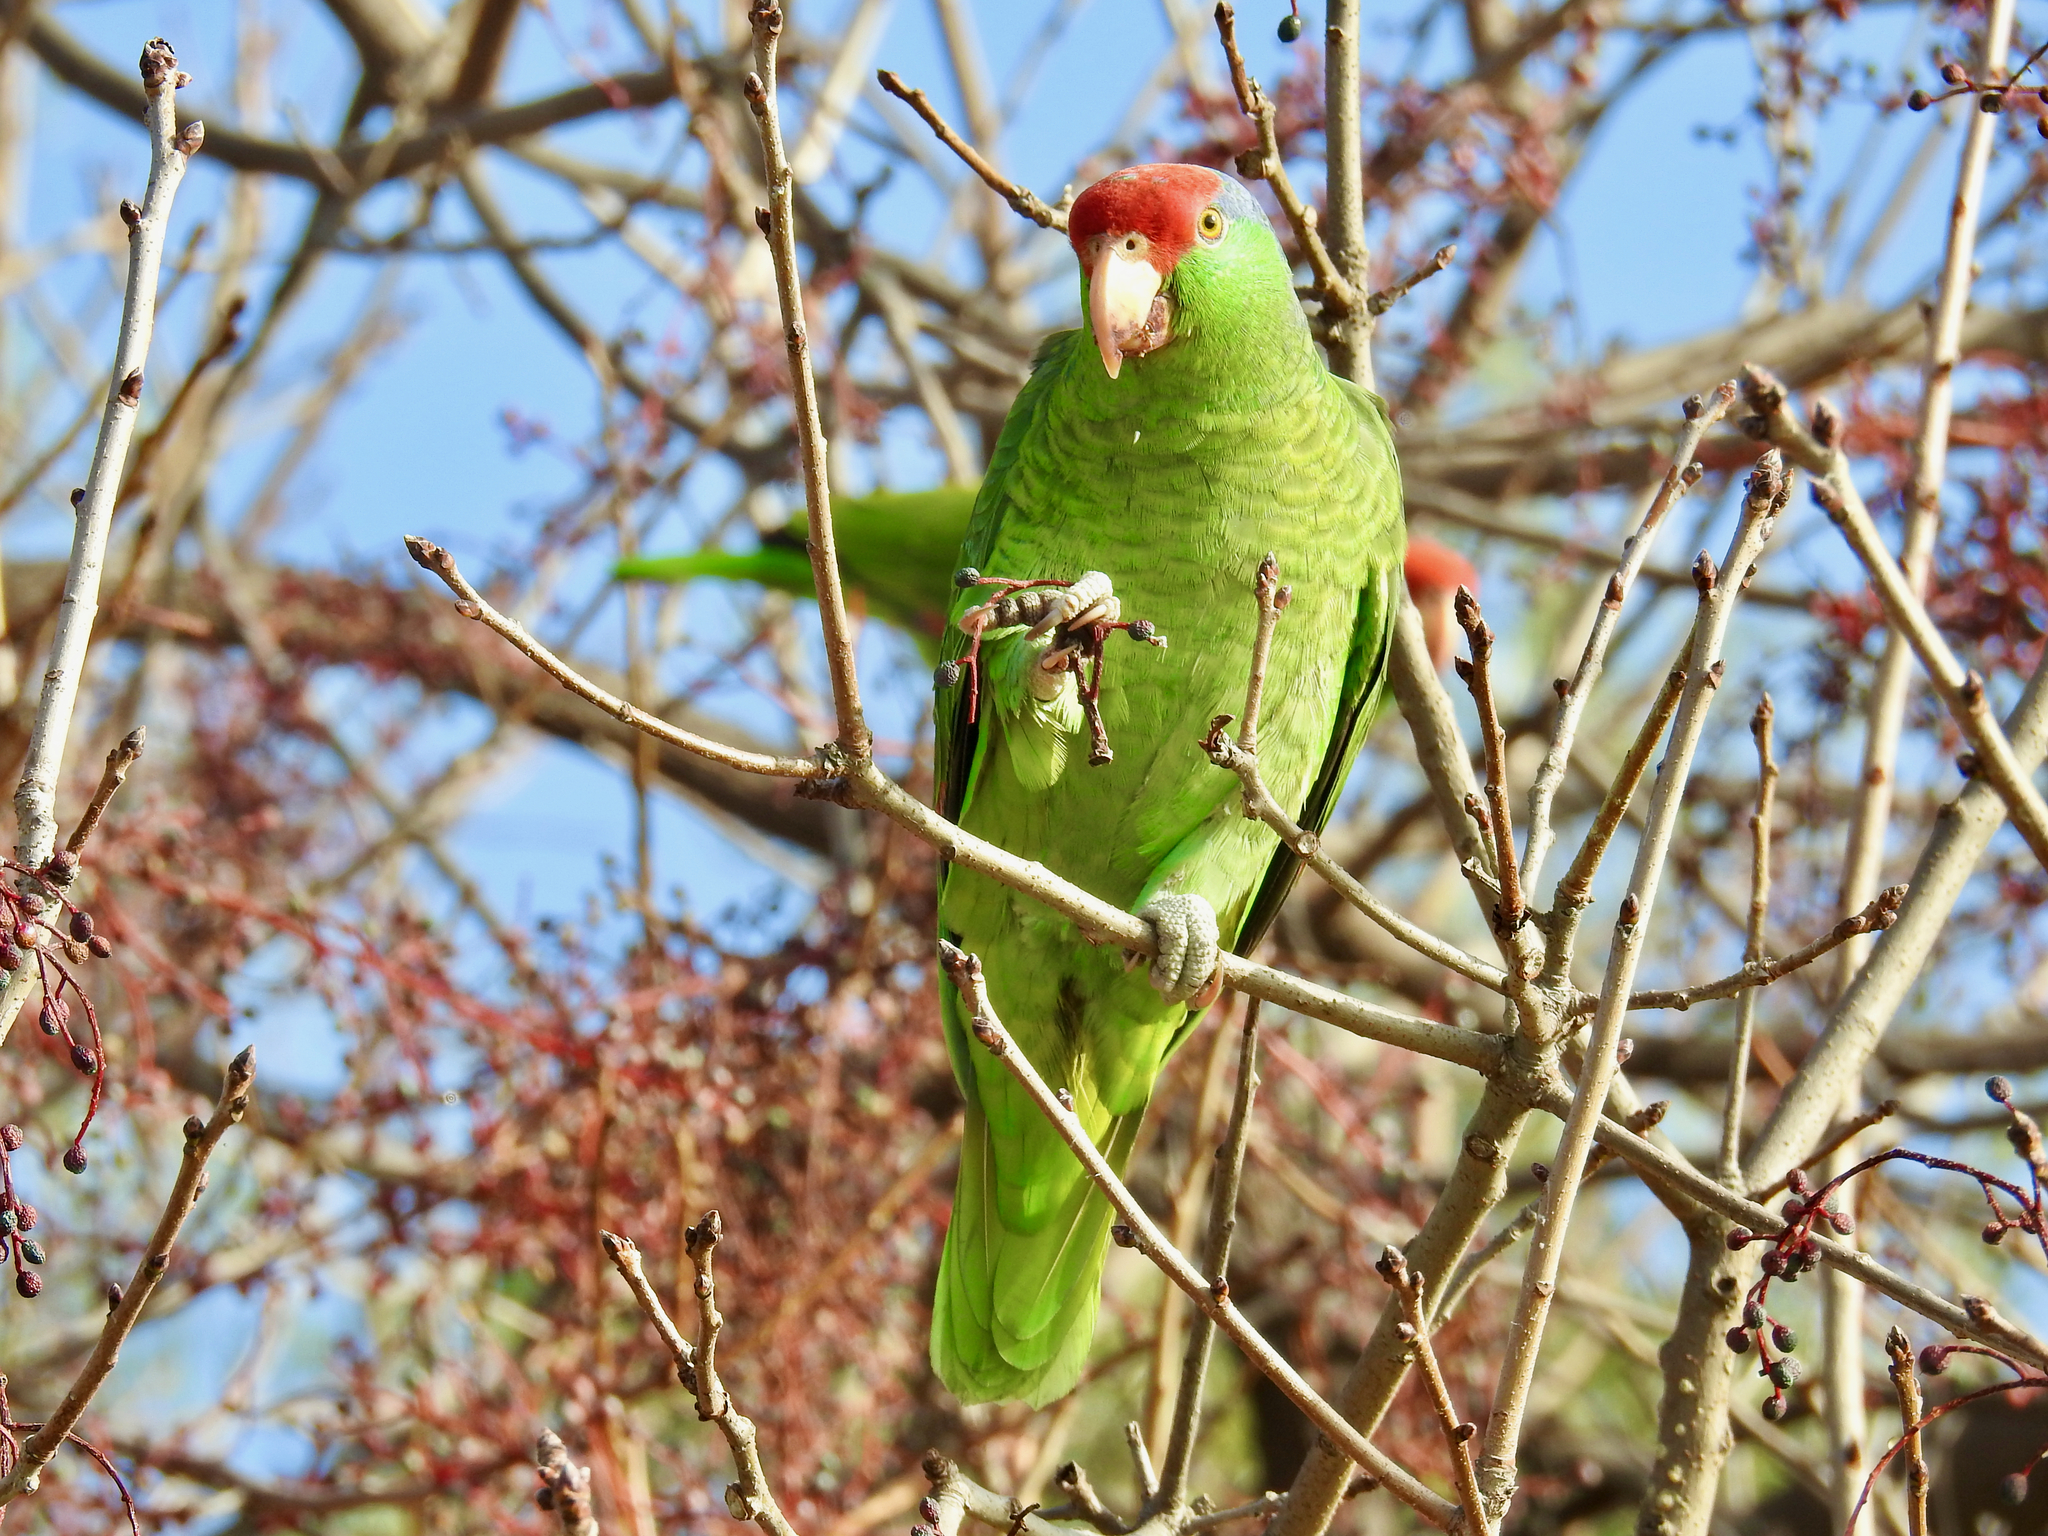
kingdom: Animalia
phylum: Chordata
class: Aves
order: Psittaciformes
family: Psittacidae
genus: Amazona
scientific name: Amazona viridigenalis
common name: Red-crowned amazon
